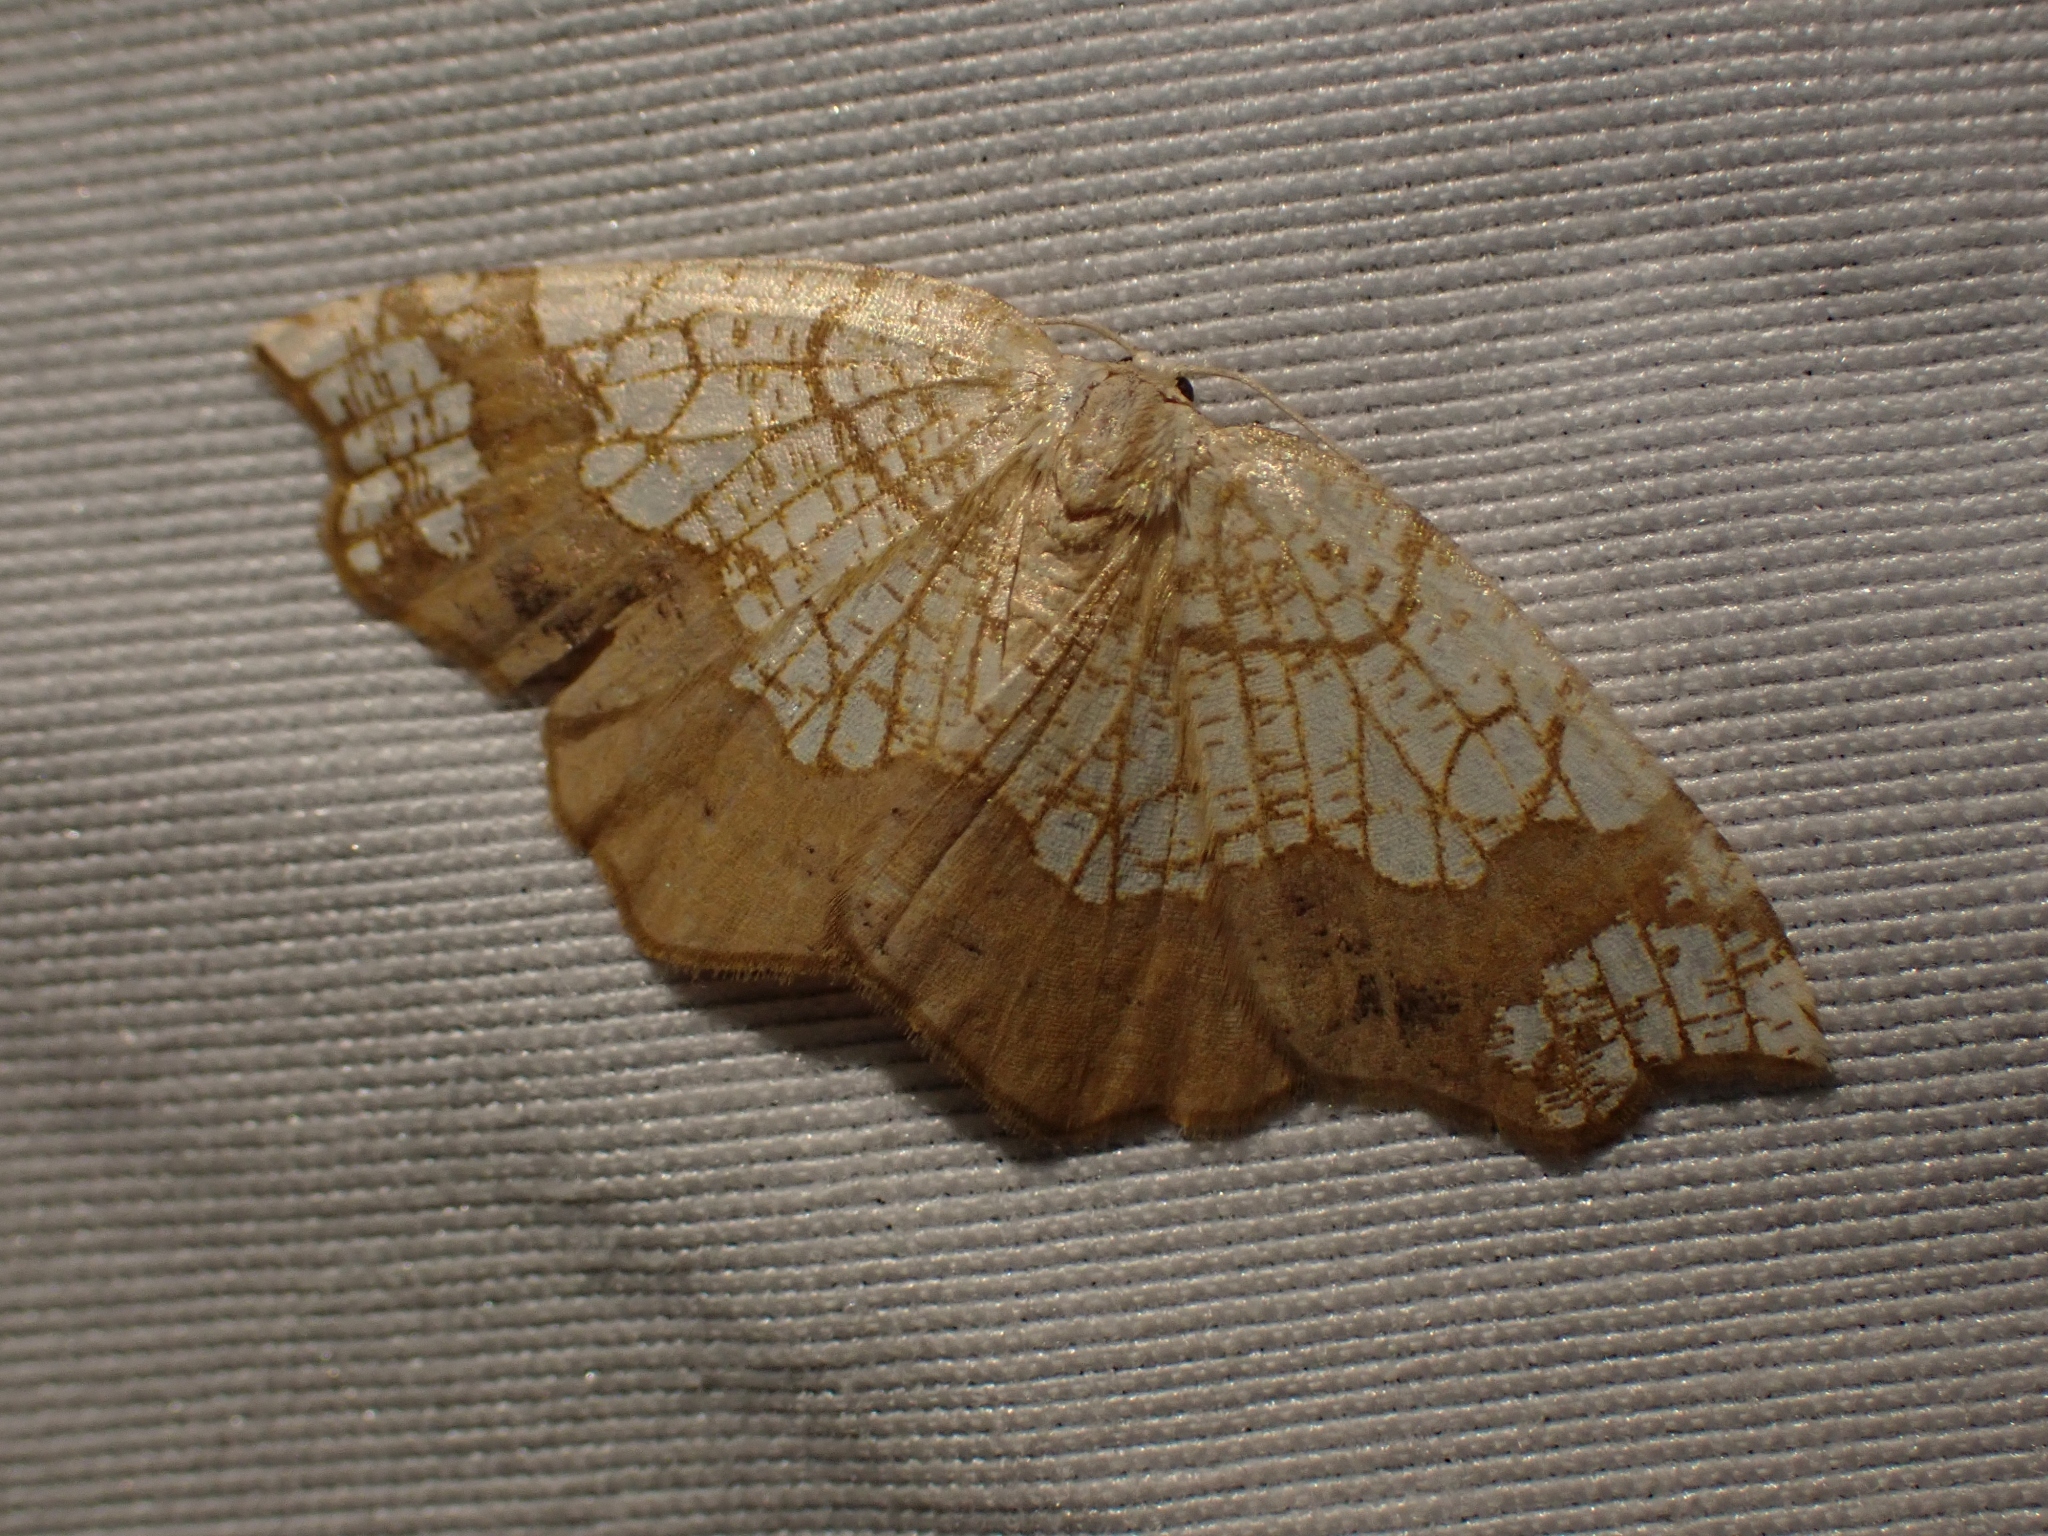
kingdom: Animalia
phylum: Arthropoda
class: Insecta
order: Lepidoptera
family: Geometridae
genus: Nematocampa
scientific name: Nematocampa resistaria
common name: Horned spanworm moth
